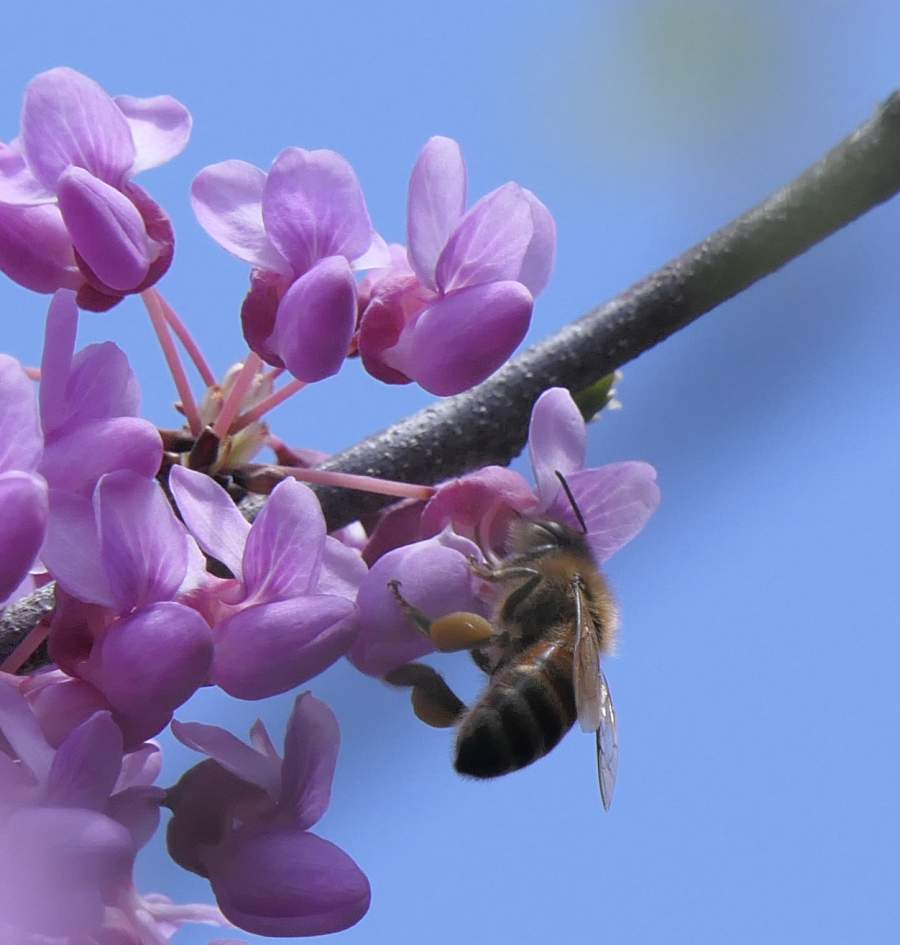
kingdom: Animalia
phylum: Arthropoda
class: Insecta
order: Hymenoptera
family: Apidae
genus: Apis
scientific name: Apis mellifera
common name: Honey bee
